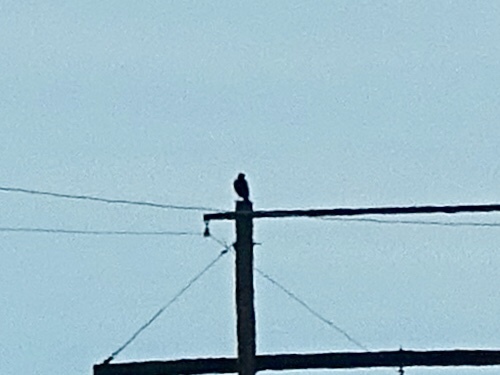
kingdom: Animalia
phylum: Chordata
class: Aves
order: Accipitriformes
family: Accipitridae
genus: Buteo
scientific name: Buteo jamaicensis
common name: Red-tailed hawk
